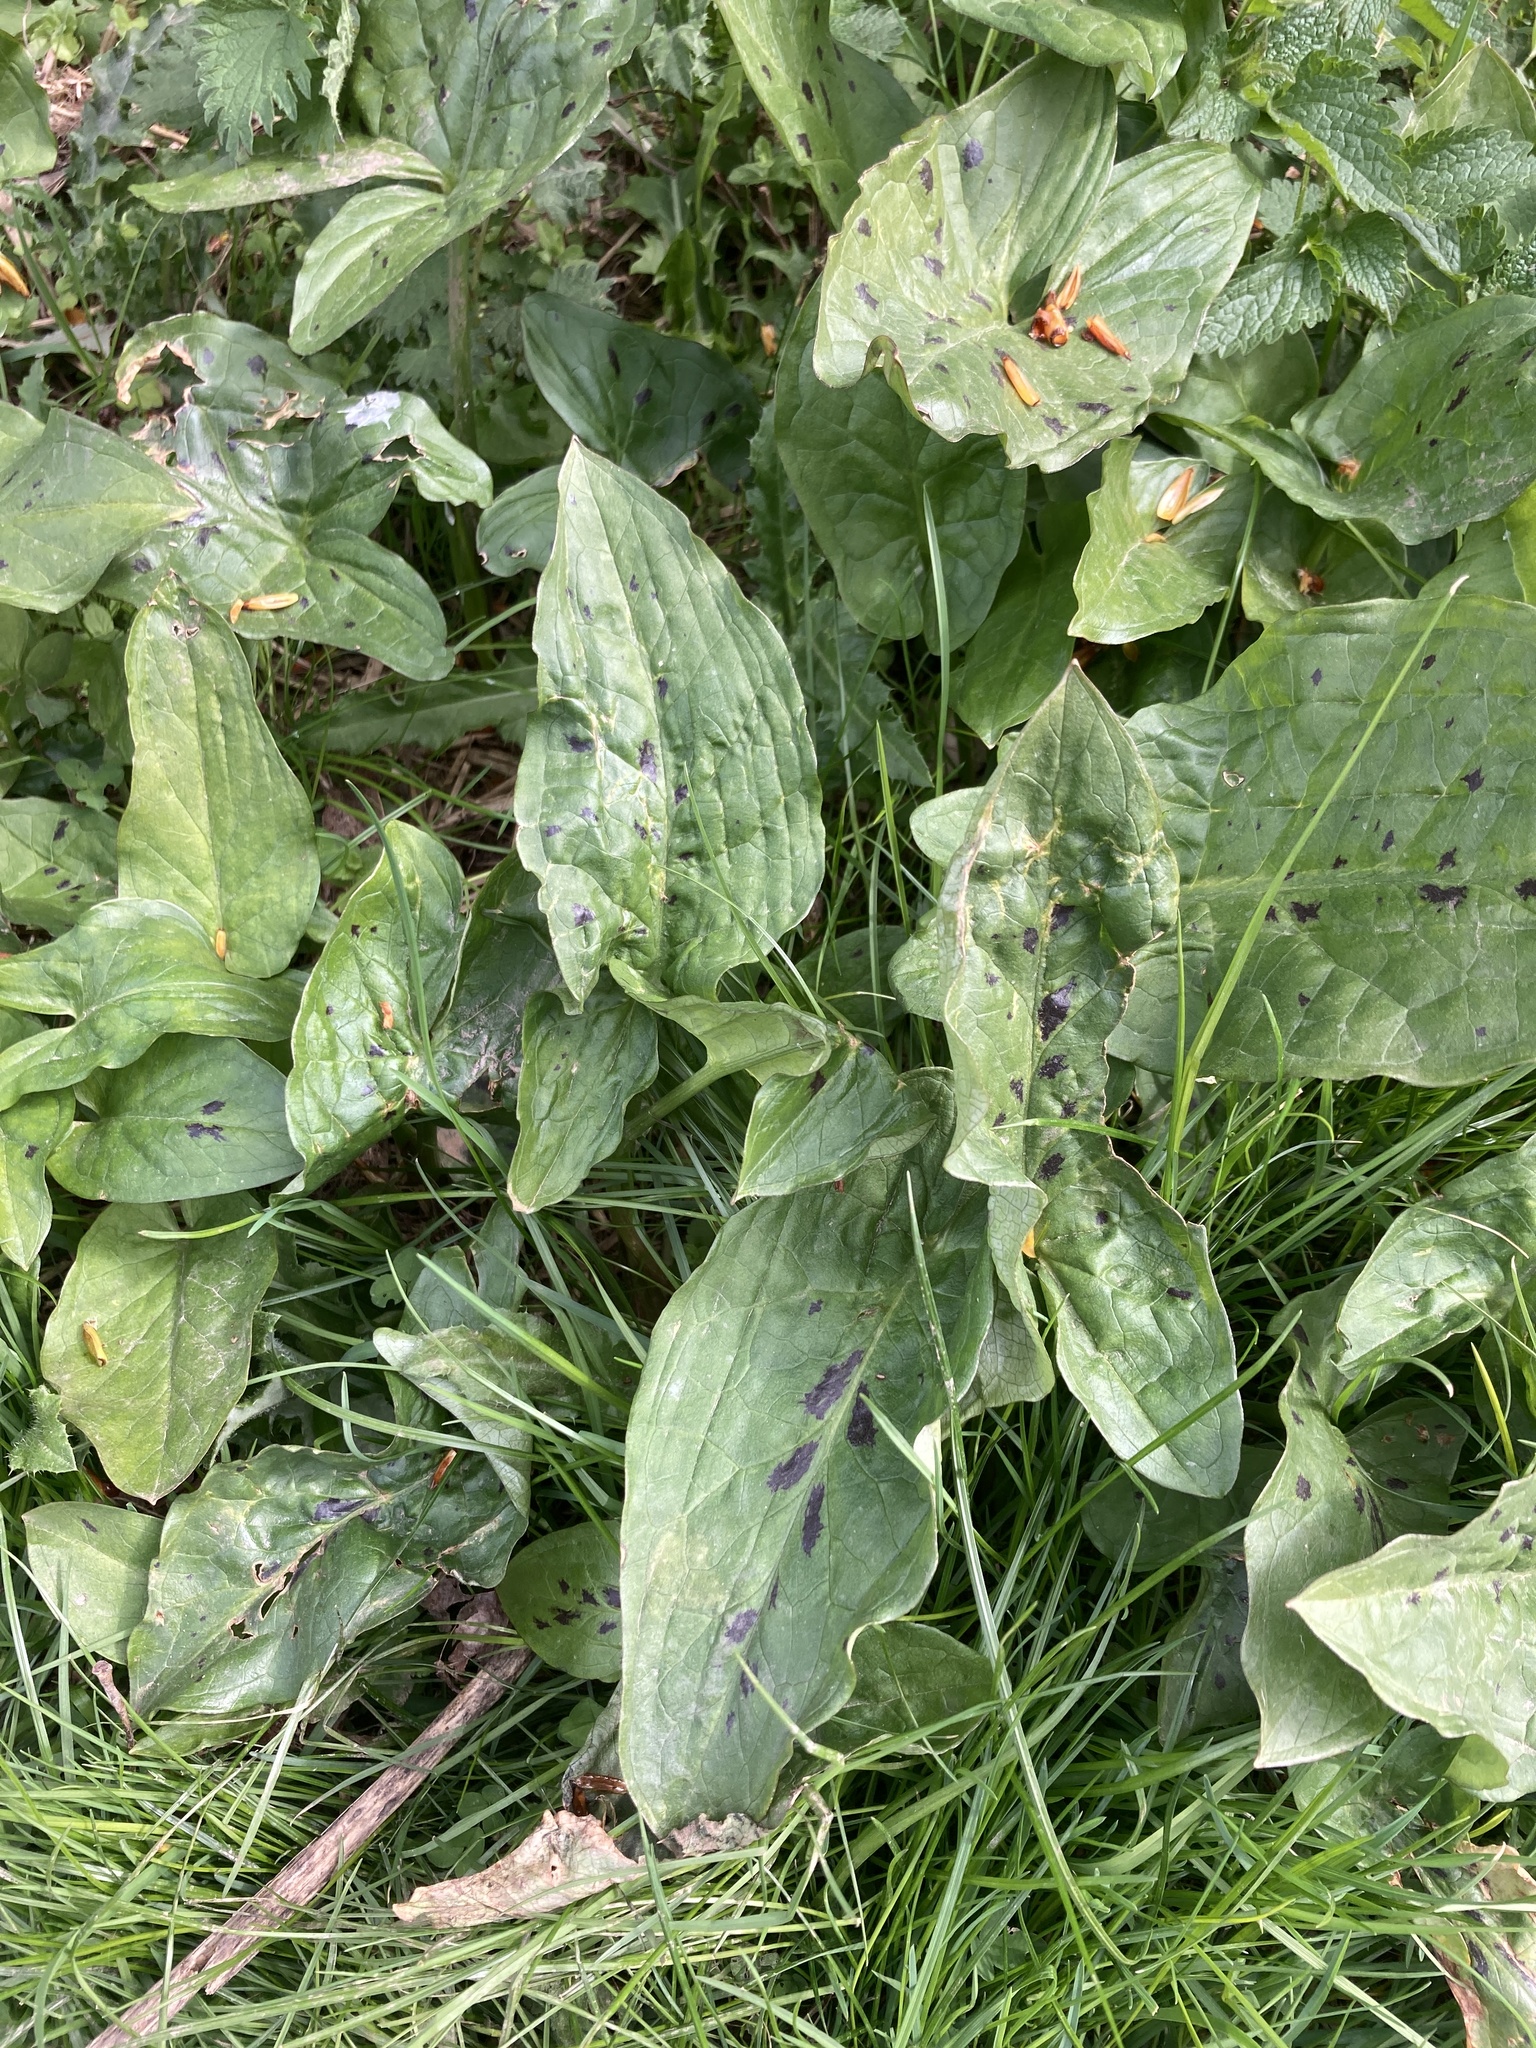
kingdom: Plantae
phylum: Tracheophyta
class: Liliopsida
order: Alismatales
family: Araceae
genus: Arum
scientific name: Arum maculatum
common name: Lords-and-ladies
